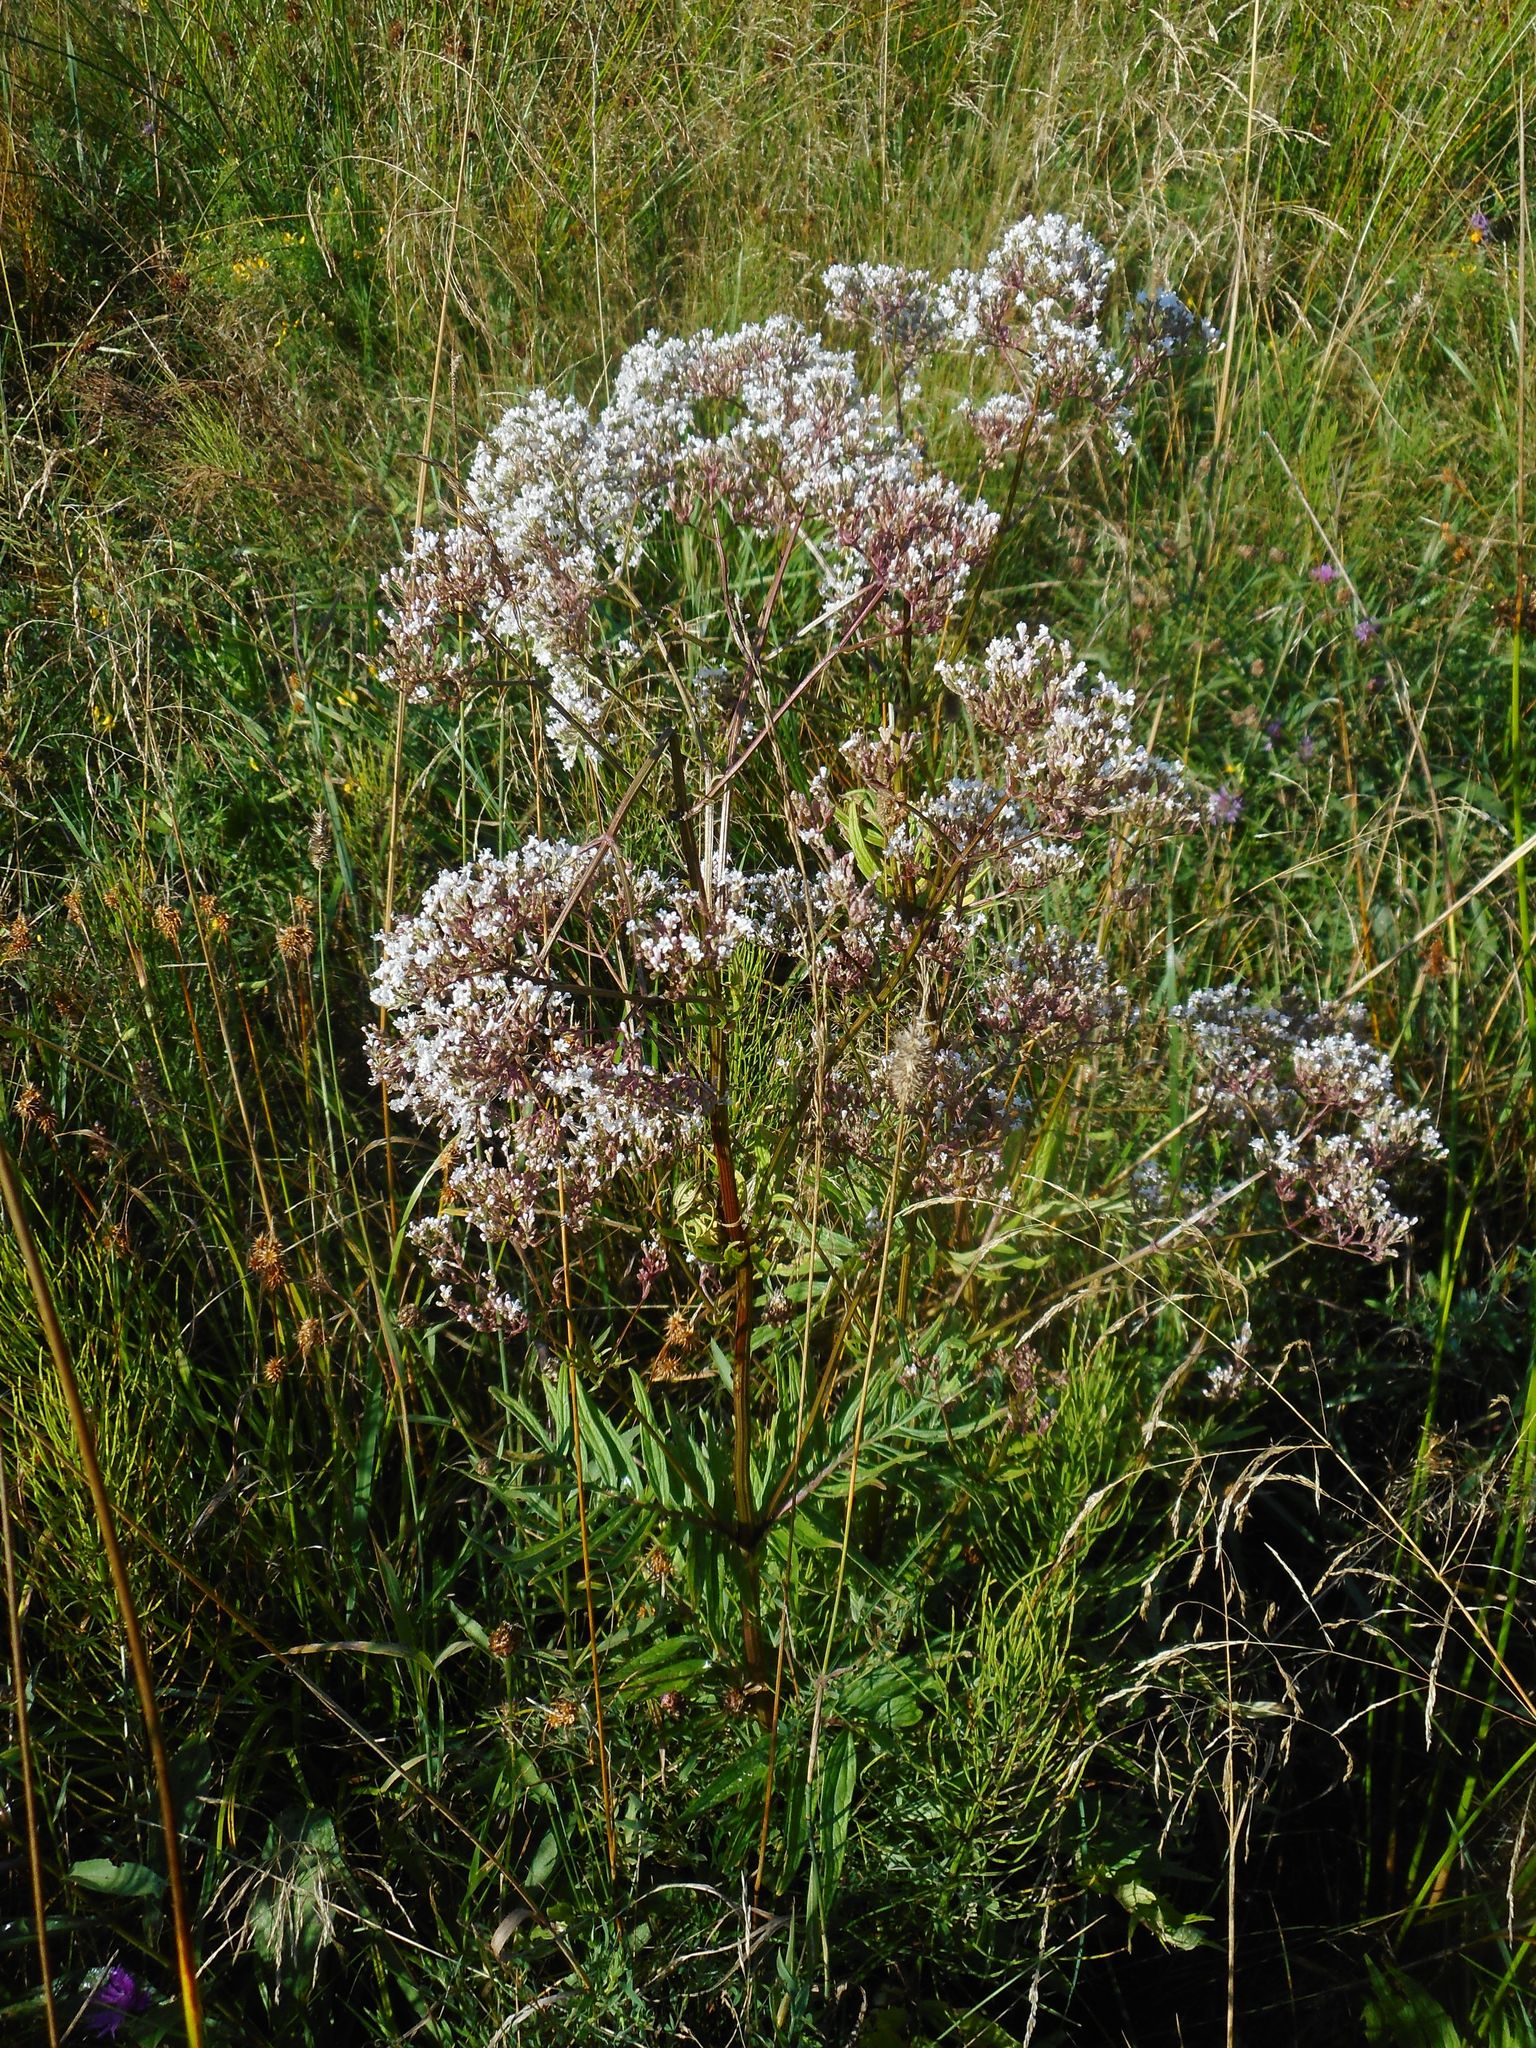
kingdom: Plantae
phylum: Tracheophyta
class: Magnoliopsida
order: Dipsacales
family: Caprifoliaceae
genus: Valeriana
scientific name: Valeriana officinalis
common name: Common valerian
